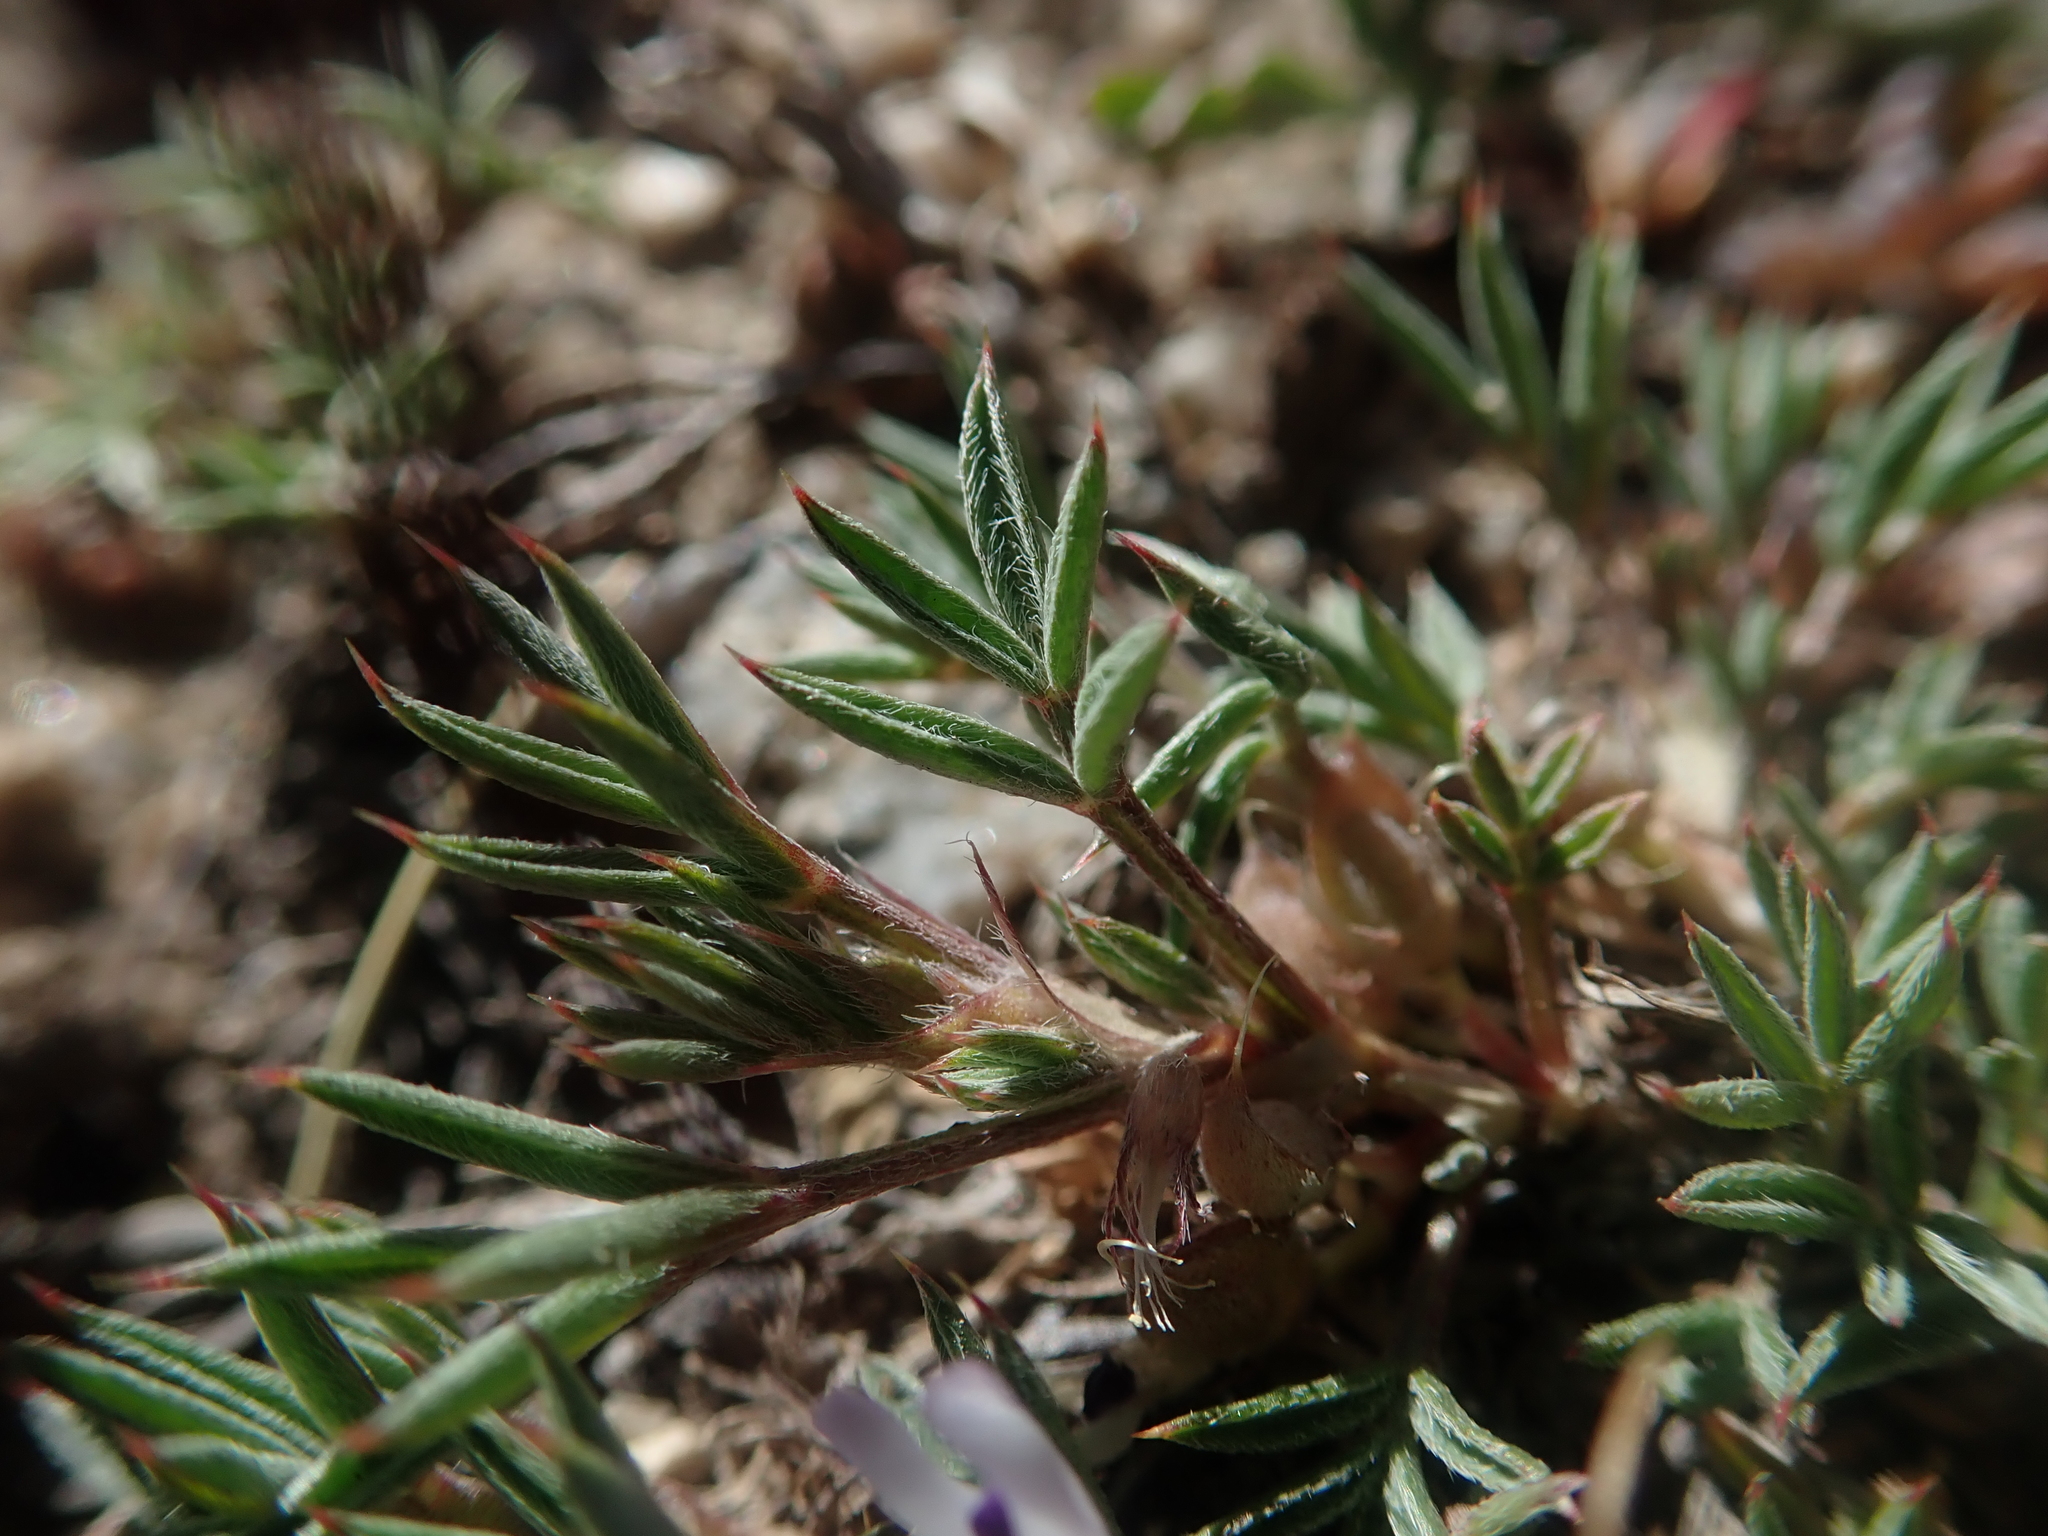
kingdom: Plantae
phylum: Tracheophyta
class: Magnoliopsida
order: Fabales
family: Fabaceae
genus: Astragalus
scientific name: Astragalus kentrophyta
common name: Prickly milk-vetch
